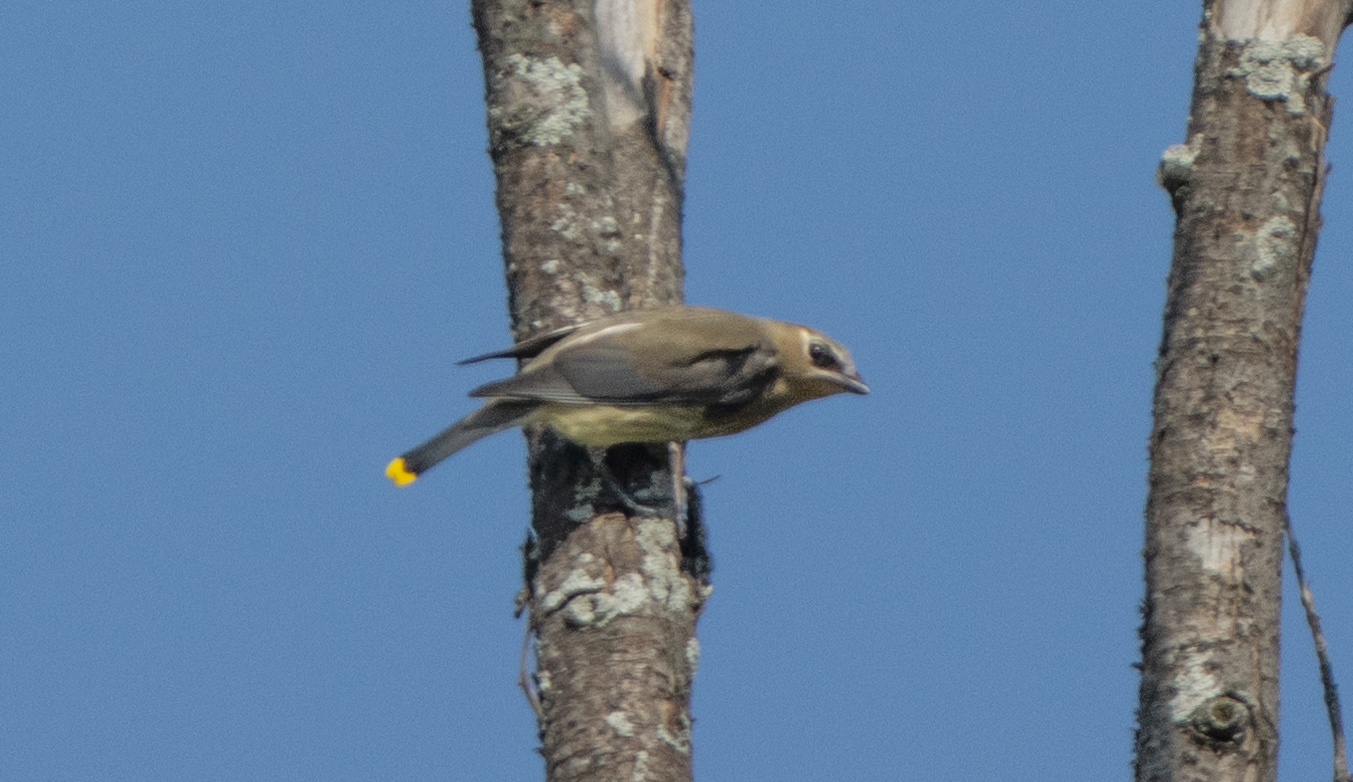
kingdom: Animalia
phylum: Chordata
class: Aves
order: Passeriformes
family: Bombycillidae
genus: Bombycilla
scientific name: Bombycilla cedrorum
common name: Cedar waxwing
